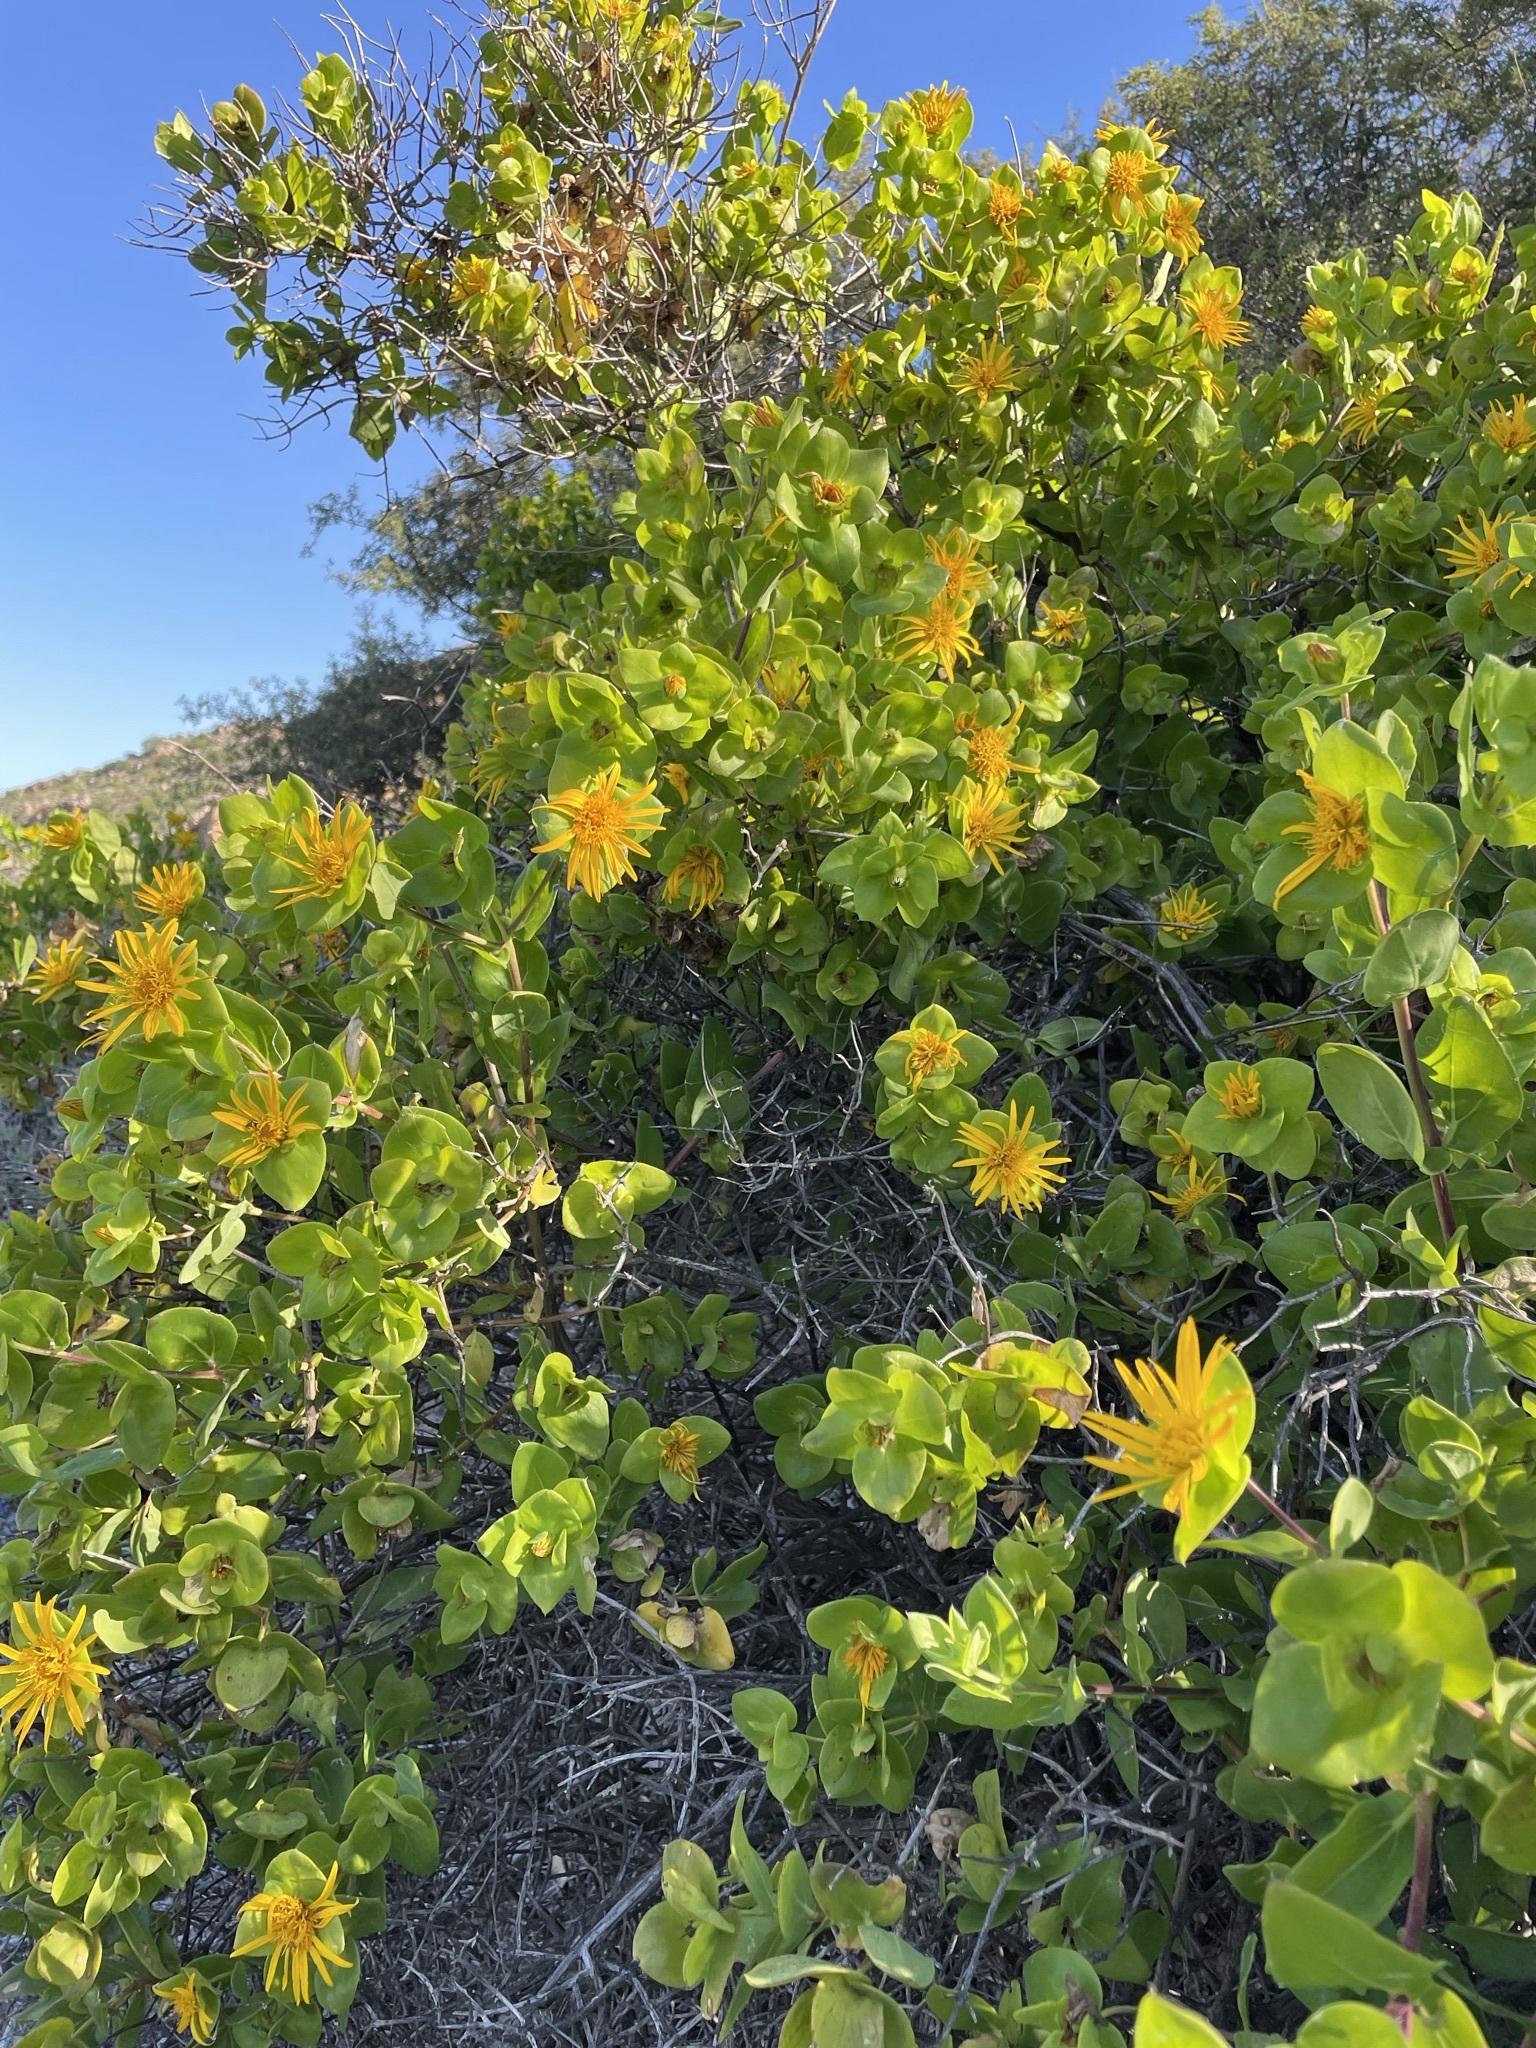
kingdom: Plantae
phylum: Tracheophyta
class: Magnoliopsida
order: Asterales
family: Asteraceae
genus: Didelta
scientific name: Didelta spinosa
